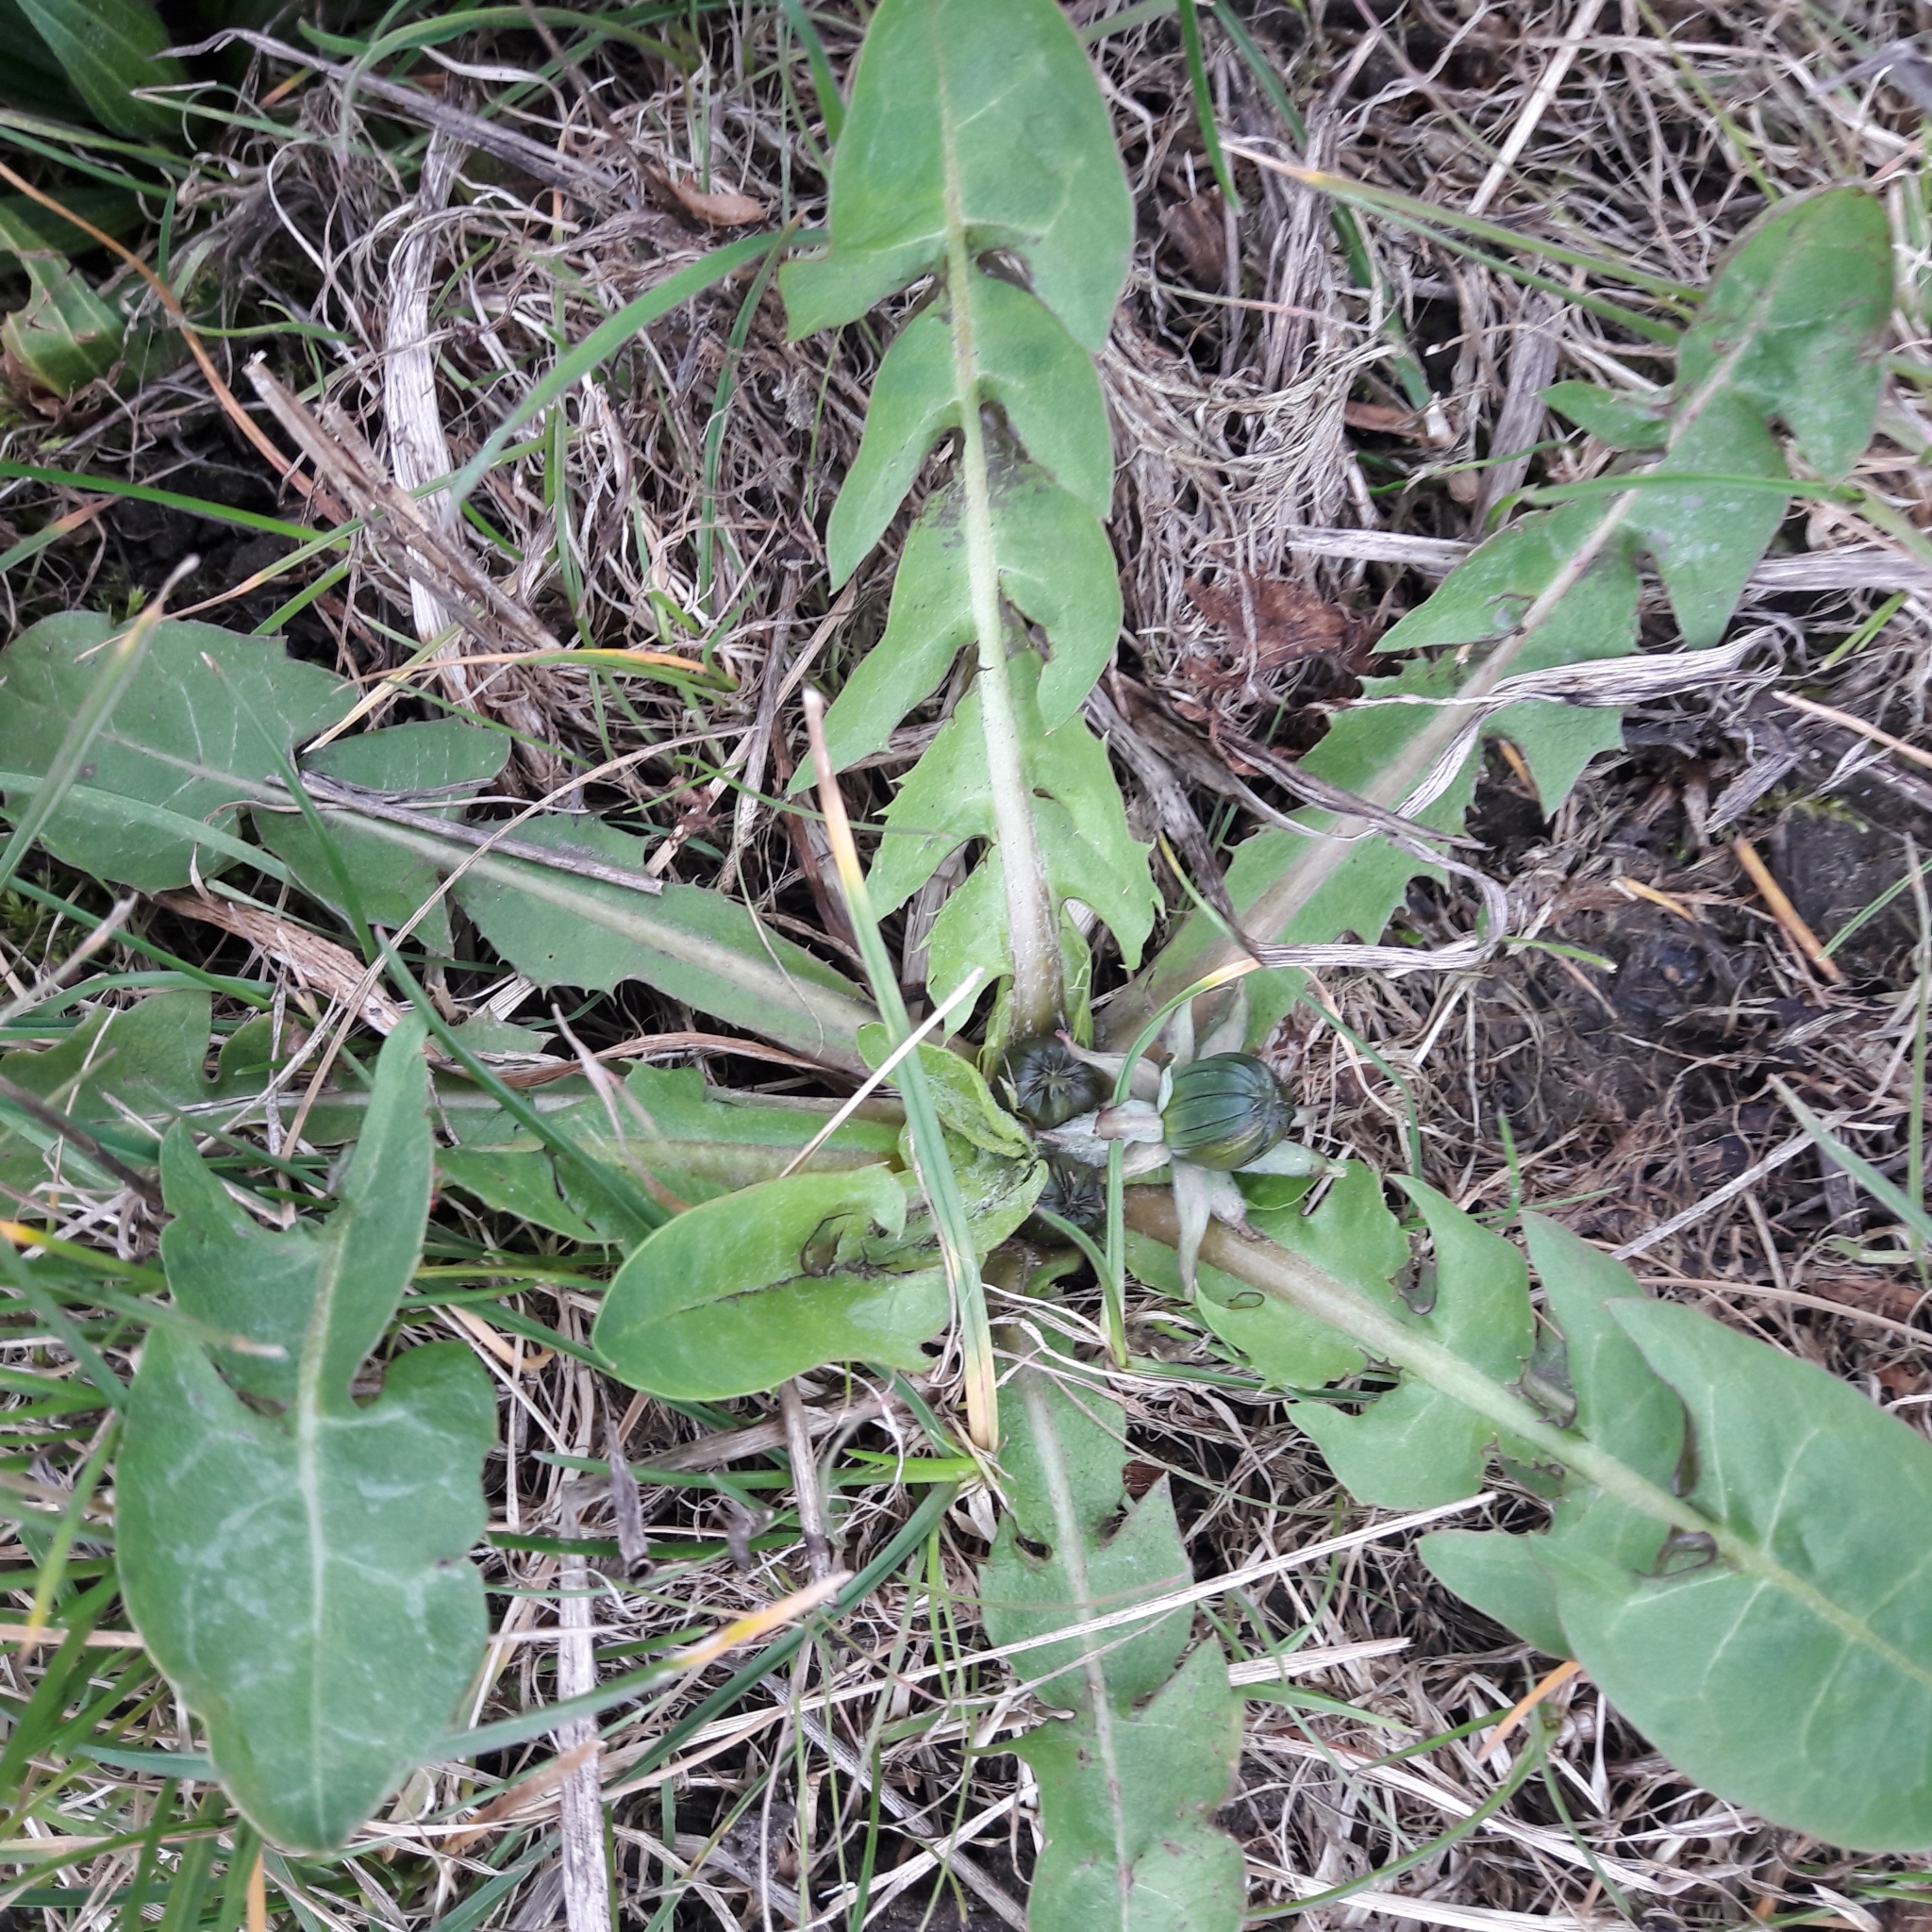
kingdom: Plantae
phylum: Tracheophyta
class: Magnoliopsida
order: Asterales
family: Asteraceae
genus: Taraxacum
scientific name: Taraxacum officinale
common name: Common dandelion
